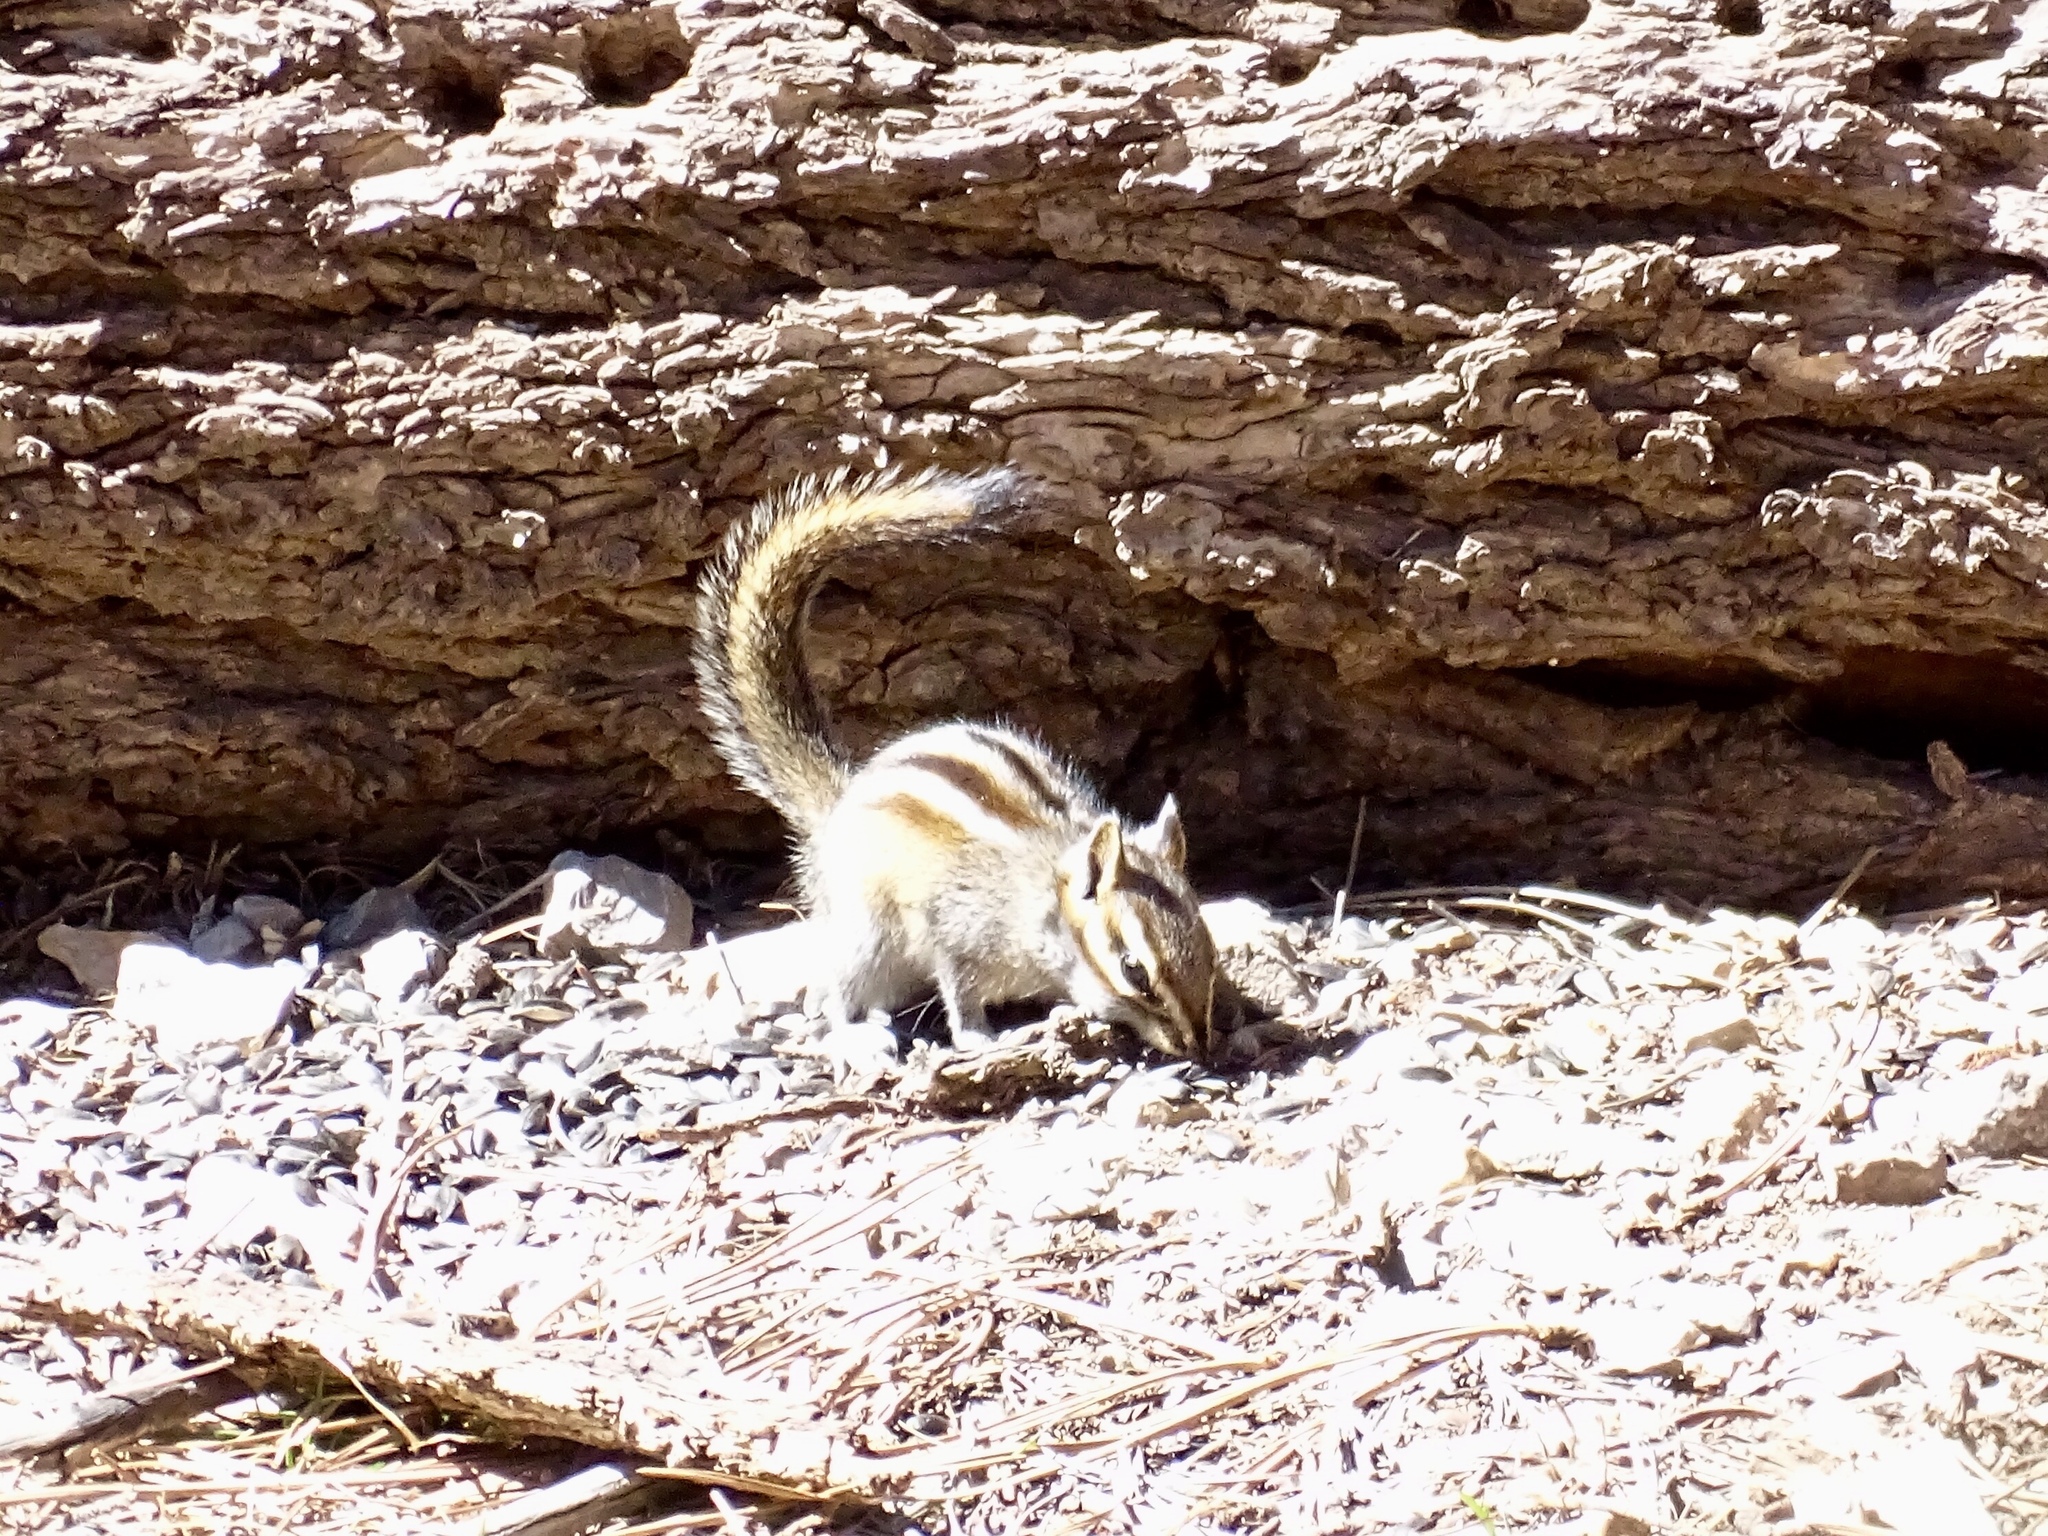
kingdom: Animalia
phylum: Chordata
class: Mammalia
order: Rodentia
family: Sciuridae
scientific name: Sciuridae
